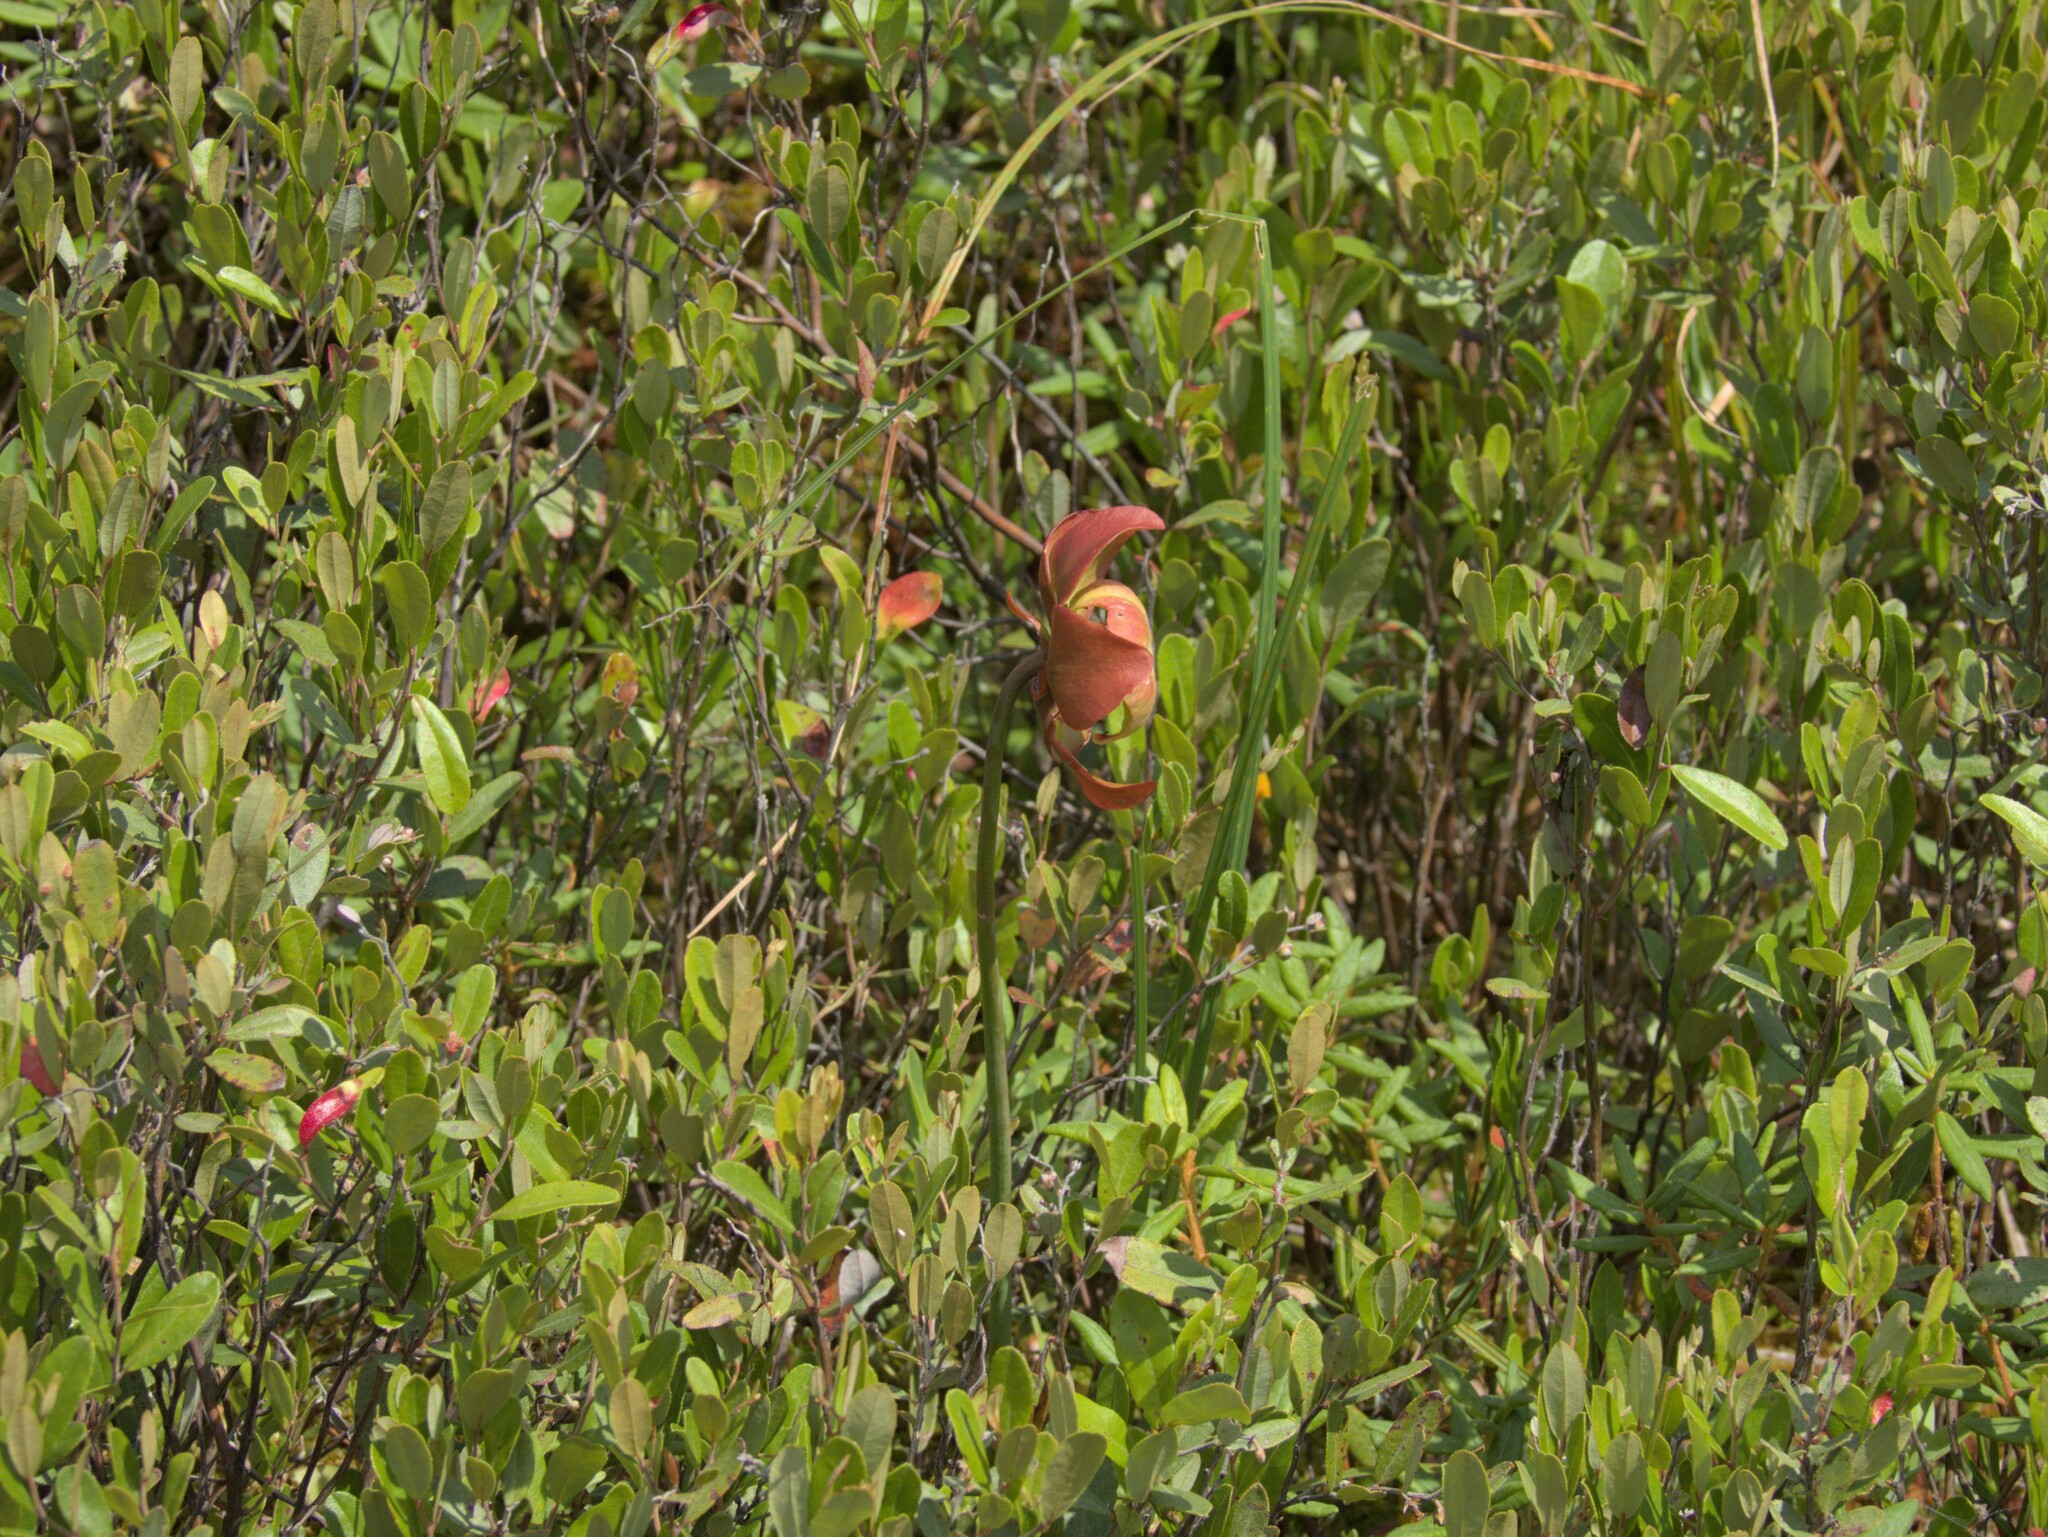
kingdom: Plantae
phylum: Tracheophyta
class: Magnoliopsida
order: Ericales
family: Sarraceniaceae
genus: Sarracenia
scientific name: Sarracenia purpurea
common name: Pitcherplant
